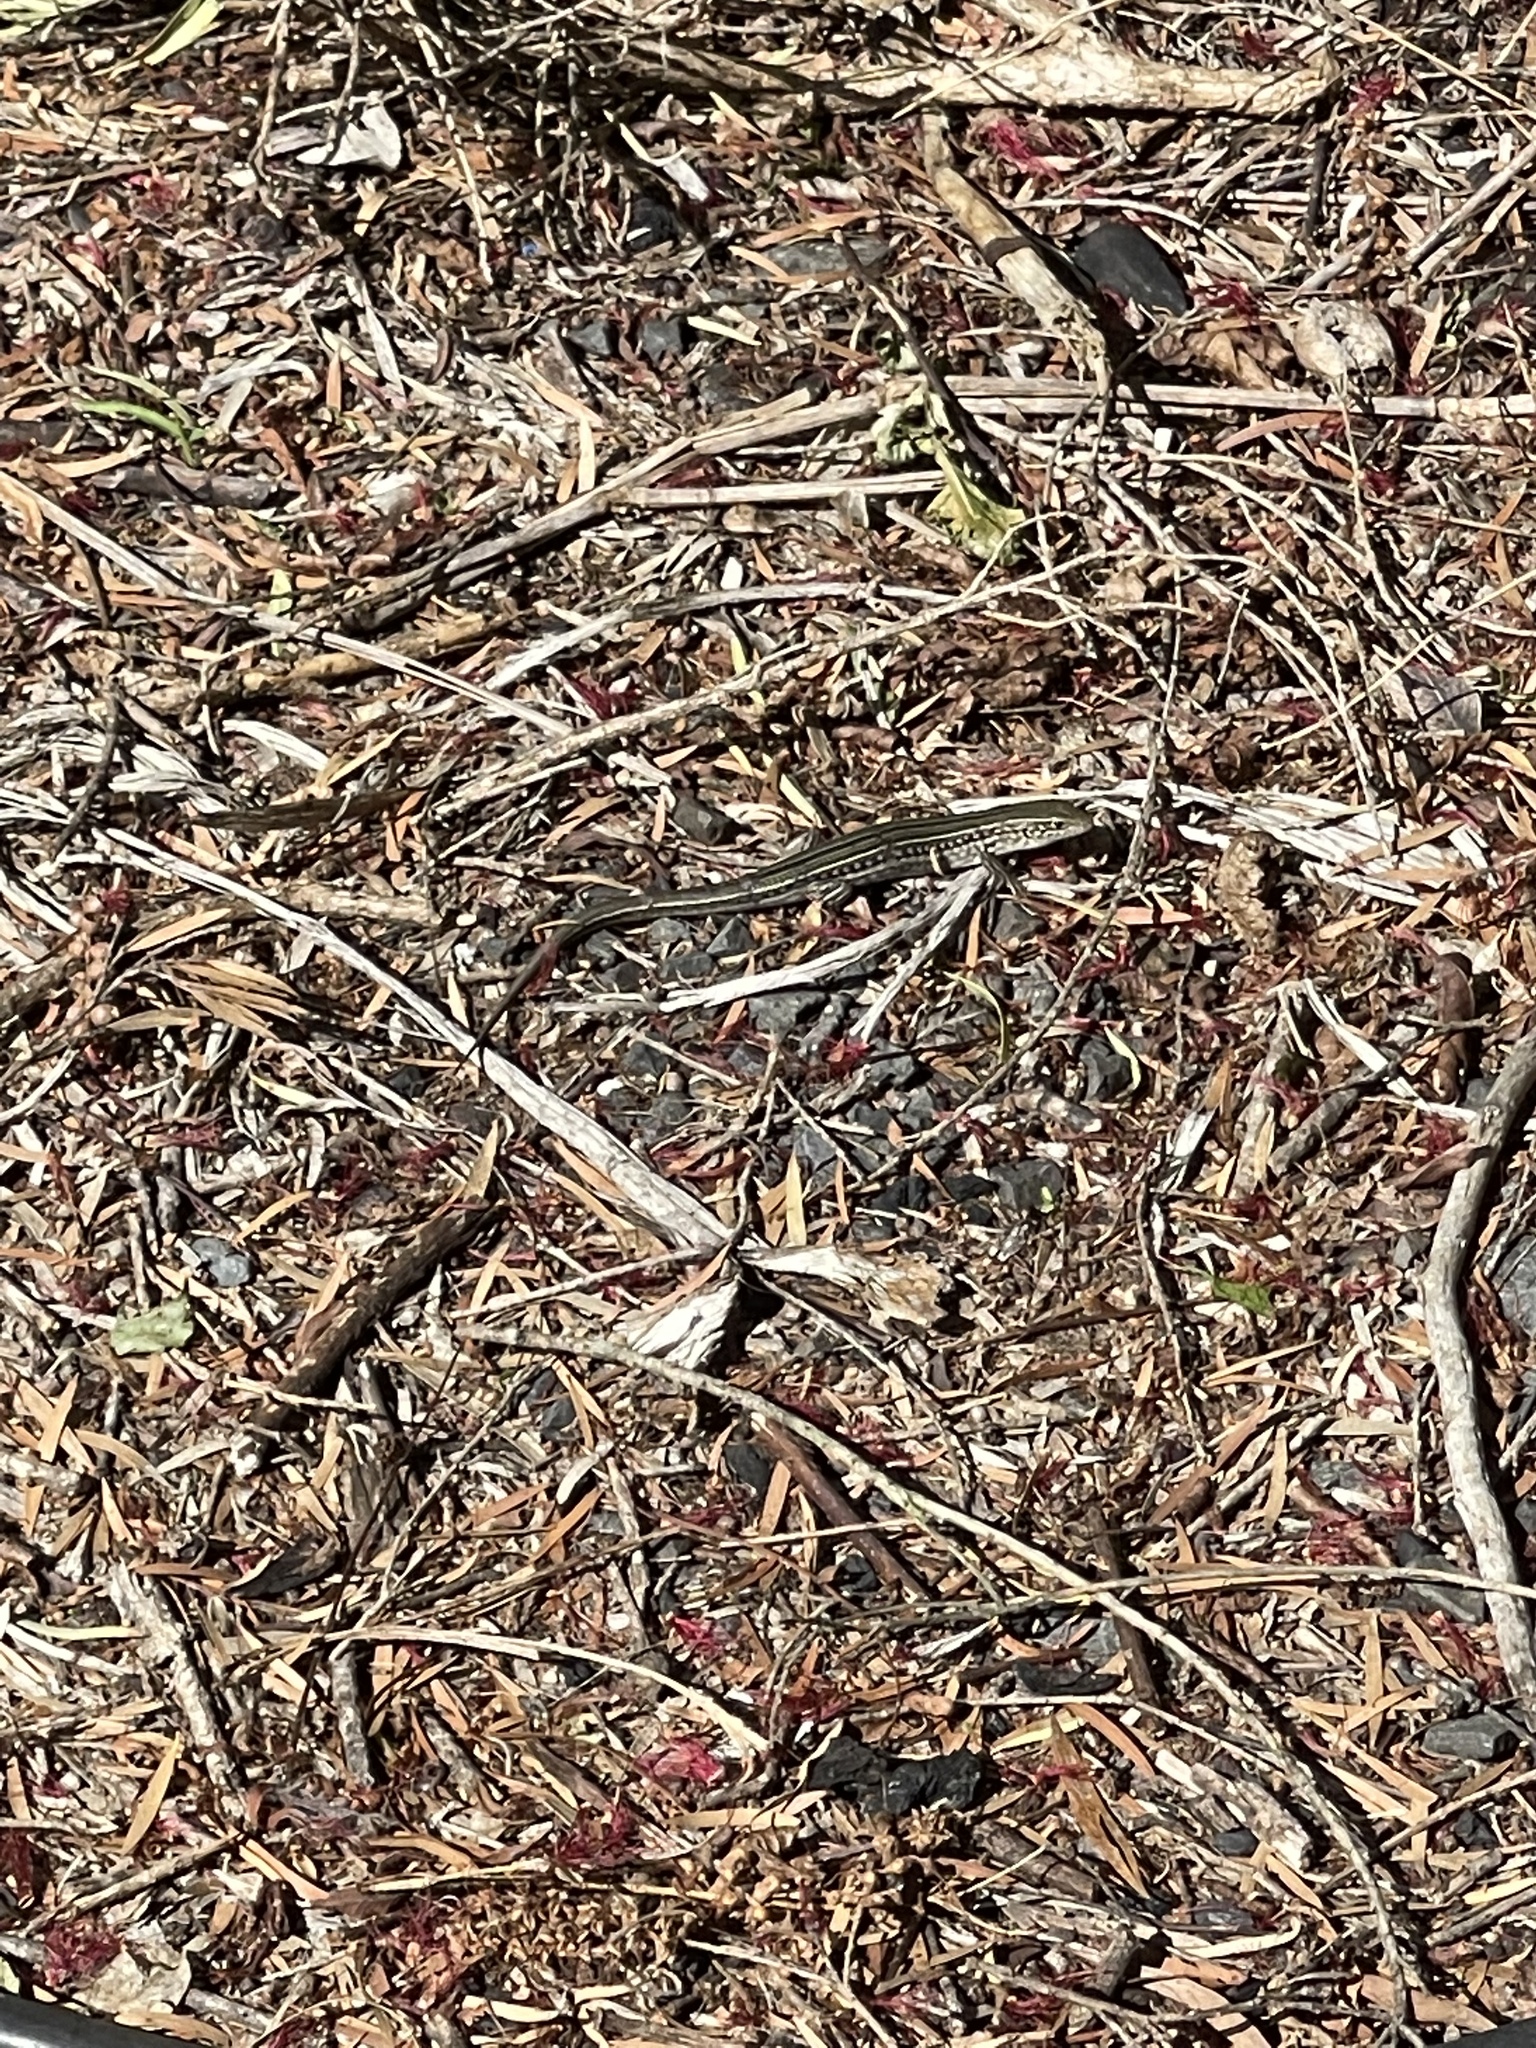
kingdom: Animalia
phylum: Chordata
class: Squamata
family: Scincidae
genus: Ctenotus
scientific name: Ctenotus robustus
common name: Robust ctenotus
